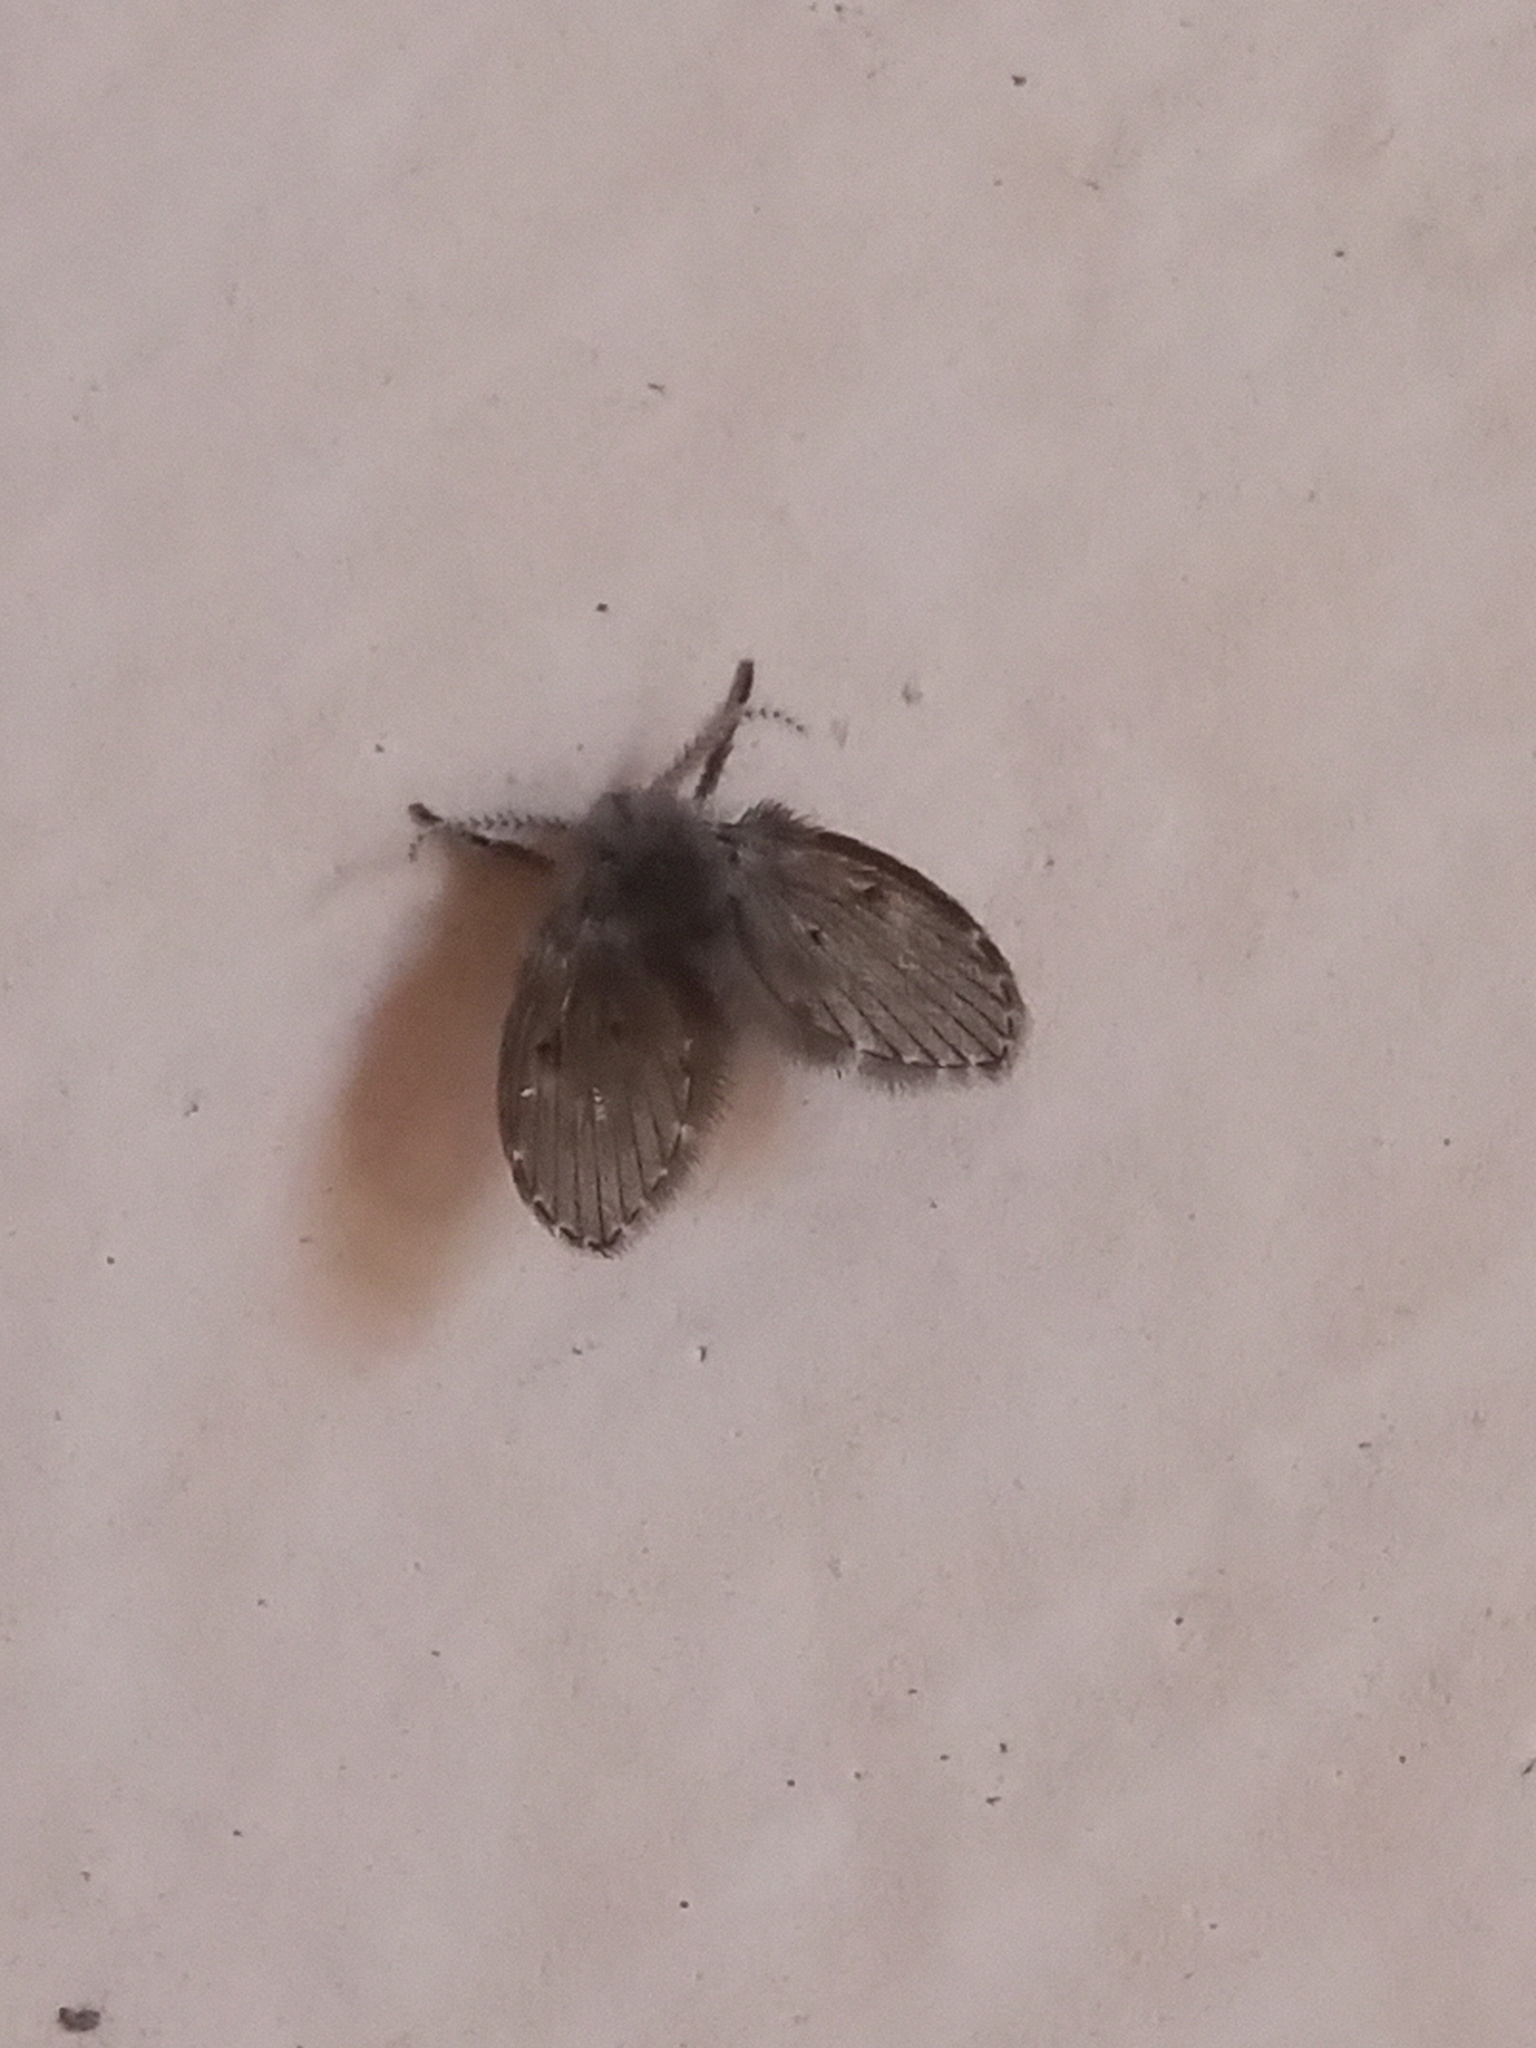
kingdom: Animalia
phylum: Arthropoda
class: Insecta
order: Diptera
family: Psychodidae
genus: Clogmia
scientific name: Clogmia albipunctatus
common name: White-spotted moth fly
